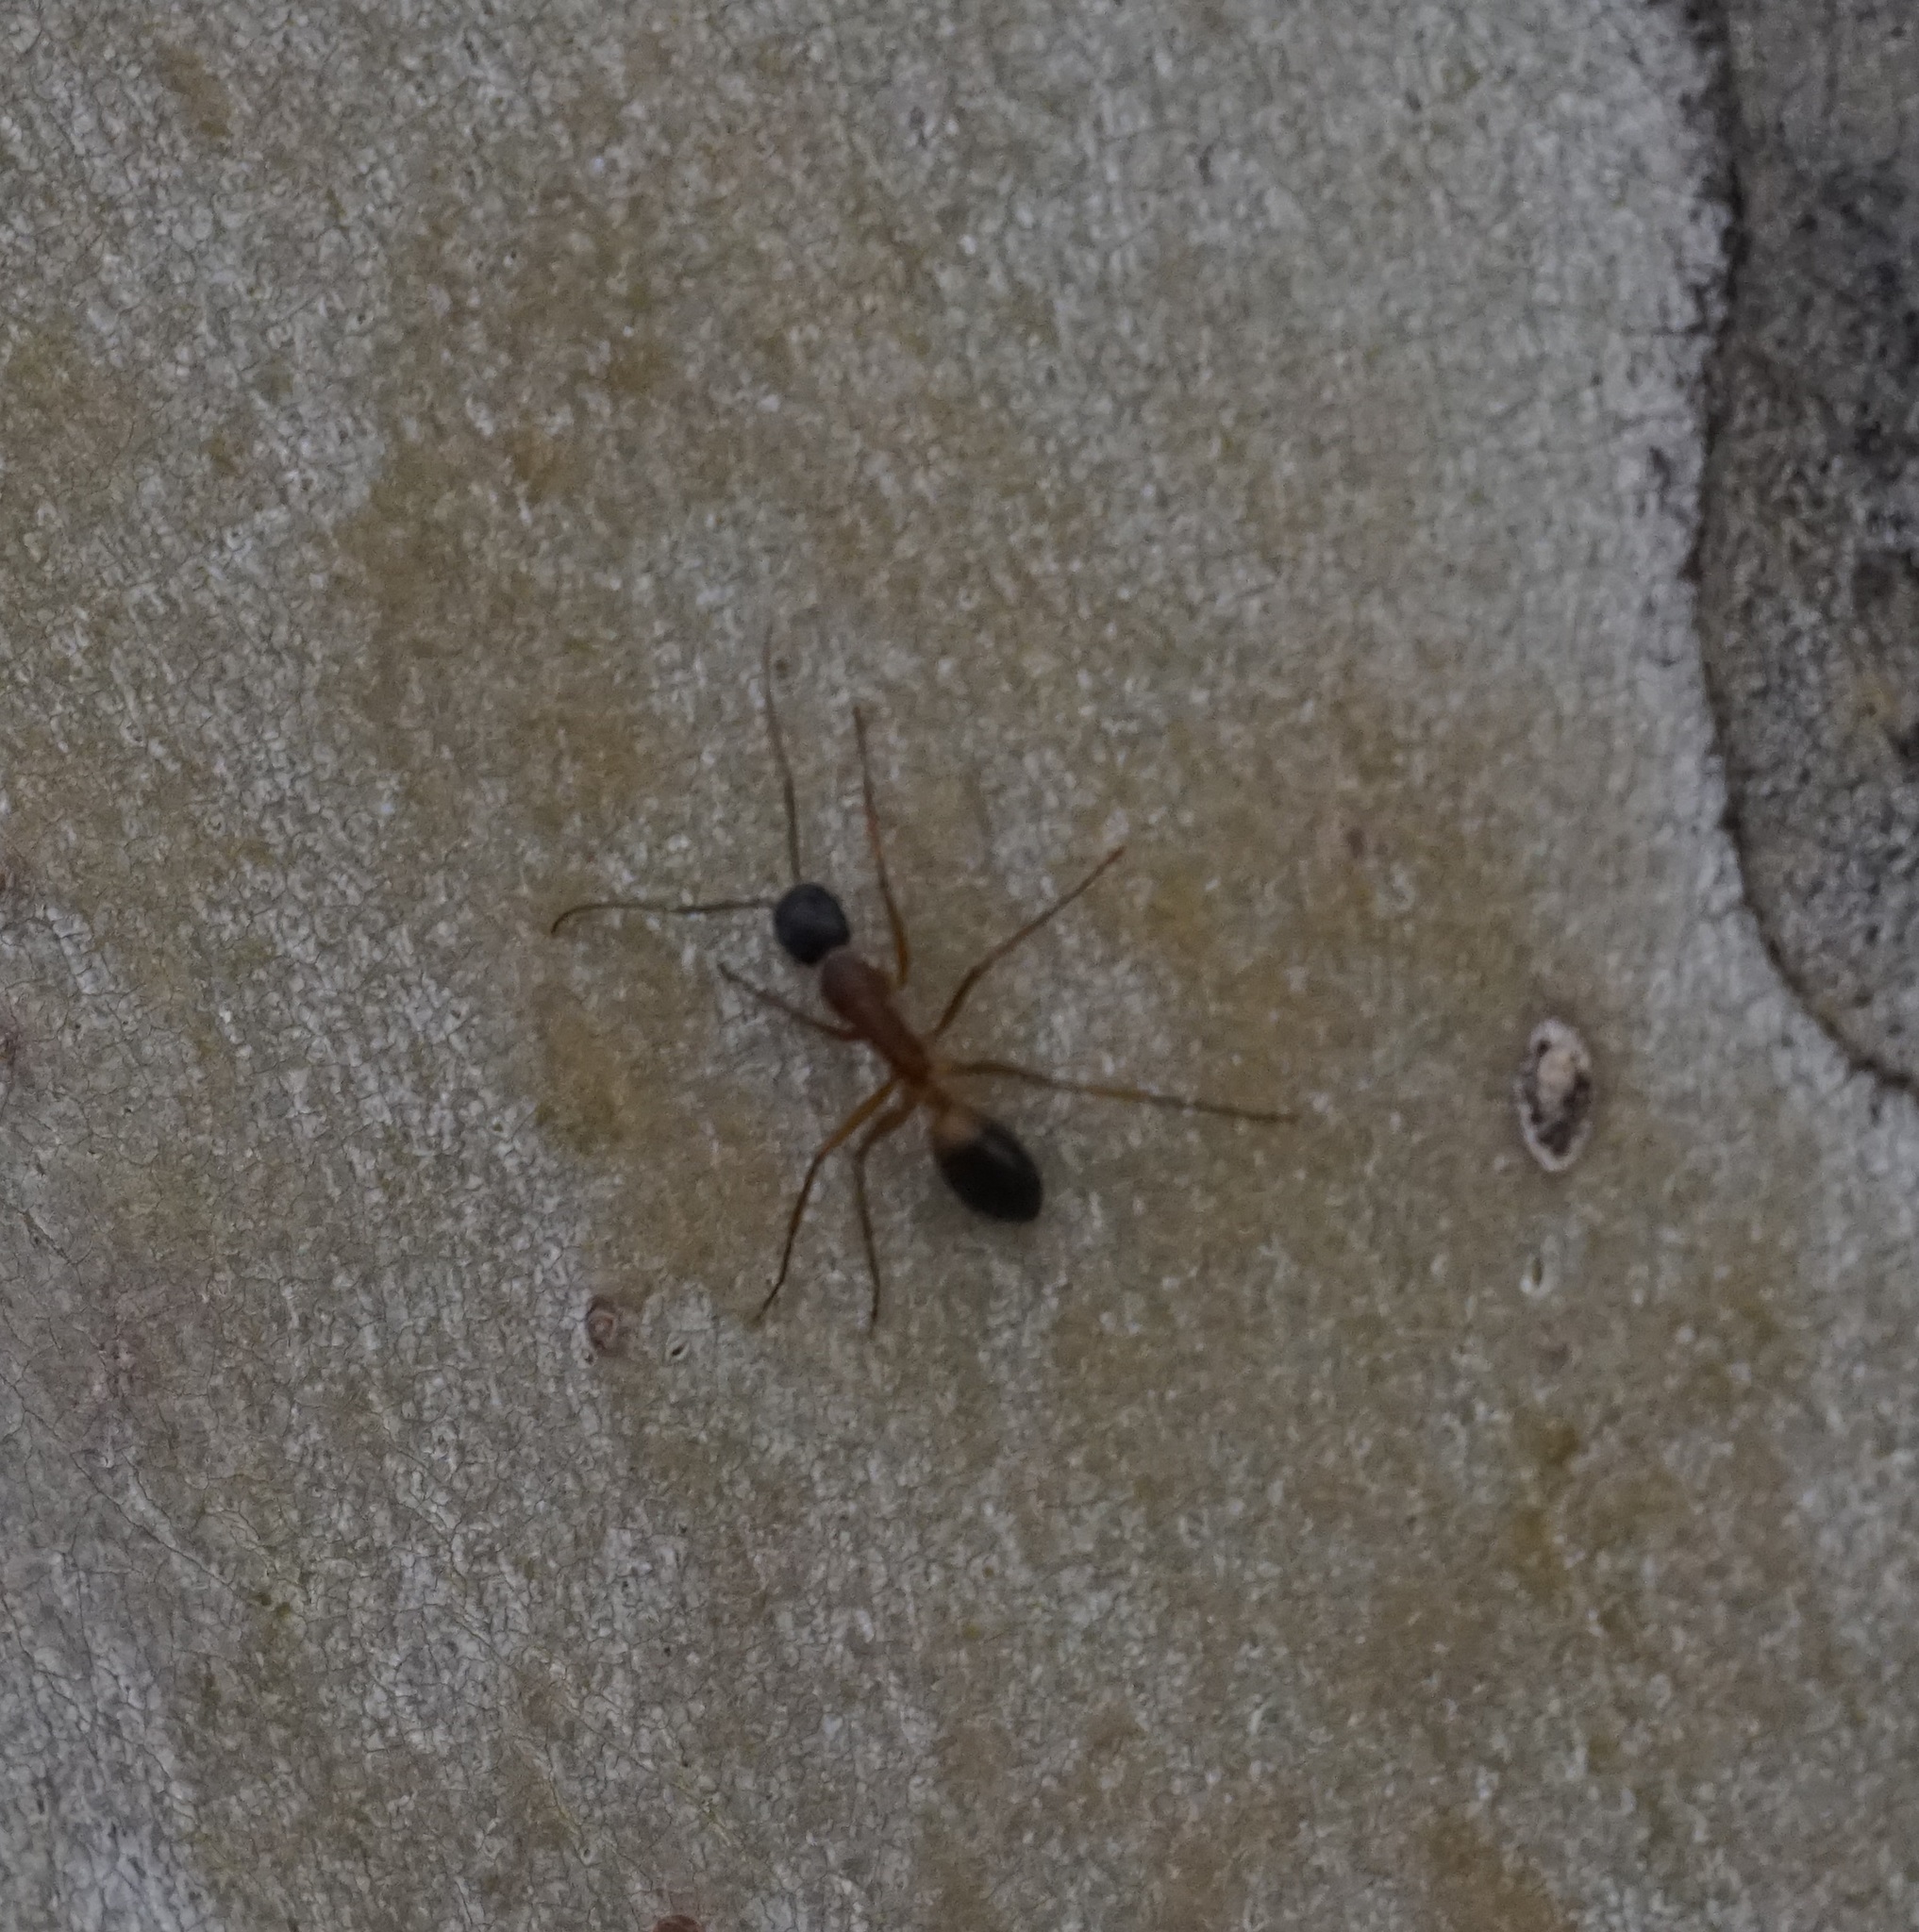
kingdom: Animalia
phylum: Arthropoda
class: Insecta
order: Hymenoptera
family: Formicidae
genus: Camponotus
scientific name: Camponotus consobrinus
